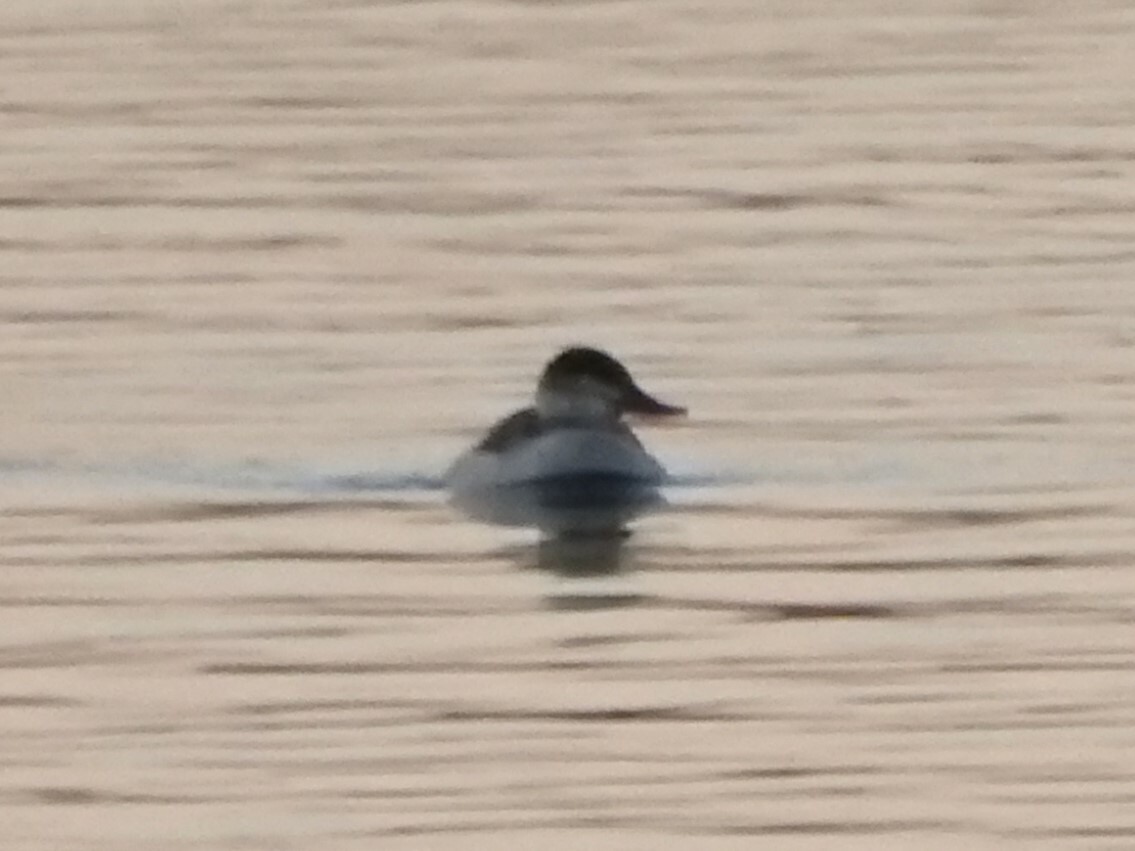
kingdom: Animalia
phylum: Chordata
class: Aves
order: Anseriformes
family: Anatidae
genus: Oxyura
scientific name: Oxyura jamaicensis
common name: Ruddy duck
